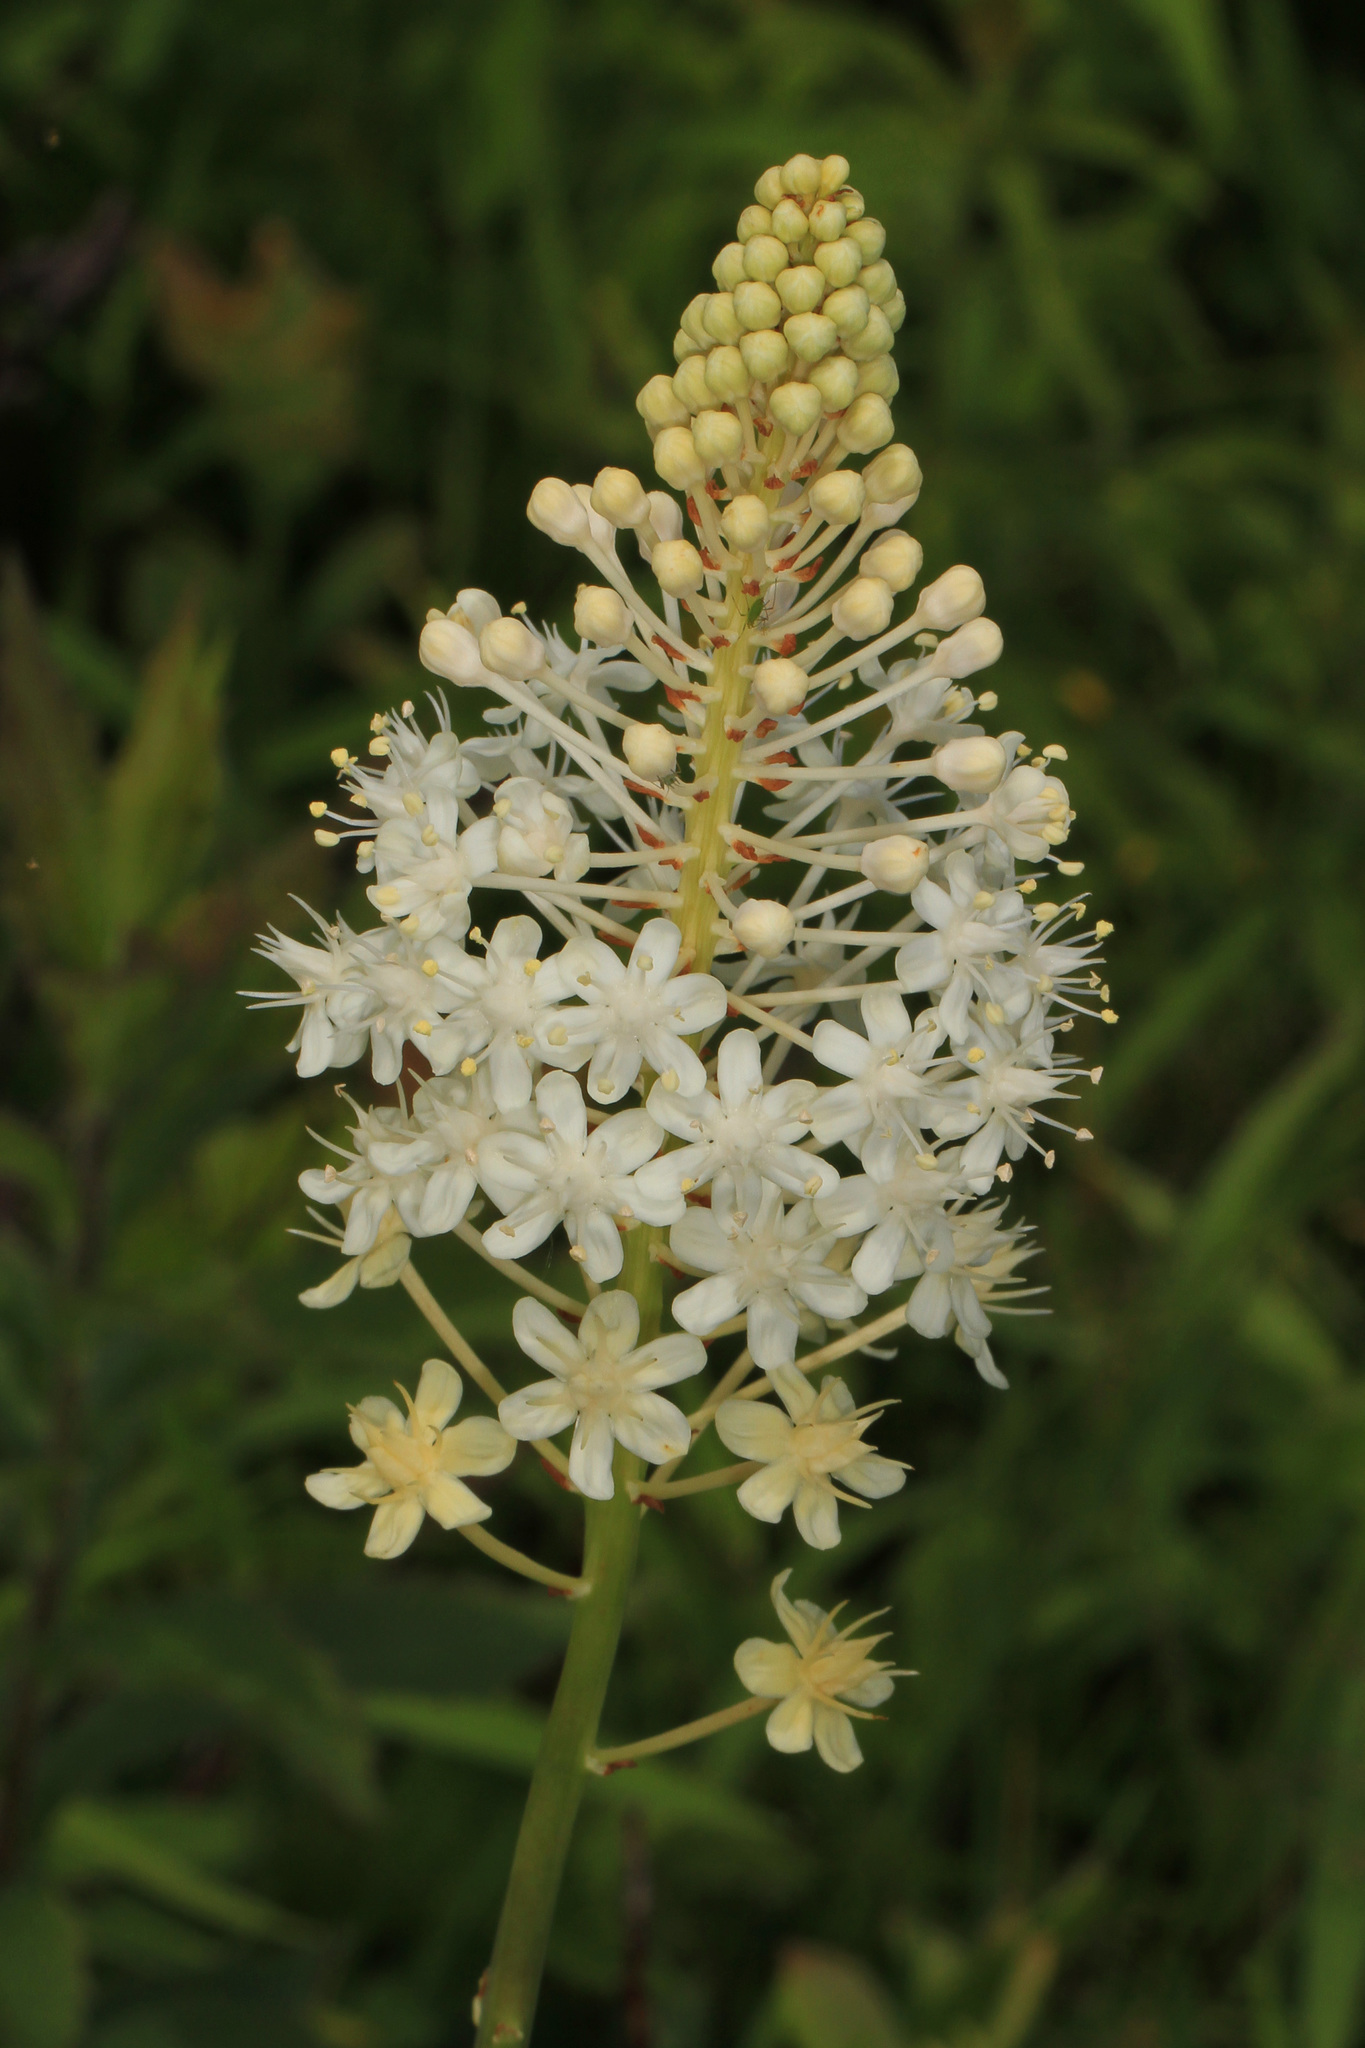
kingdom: Plantae
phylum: Tracheophyta
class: Liliopsida
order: Liliales
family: Melanthiaceae
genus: Amianthium
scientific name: Amianthium muscitoxicum
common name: Fly-poison
